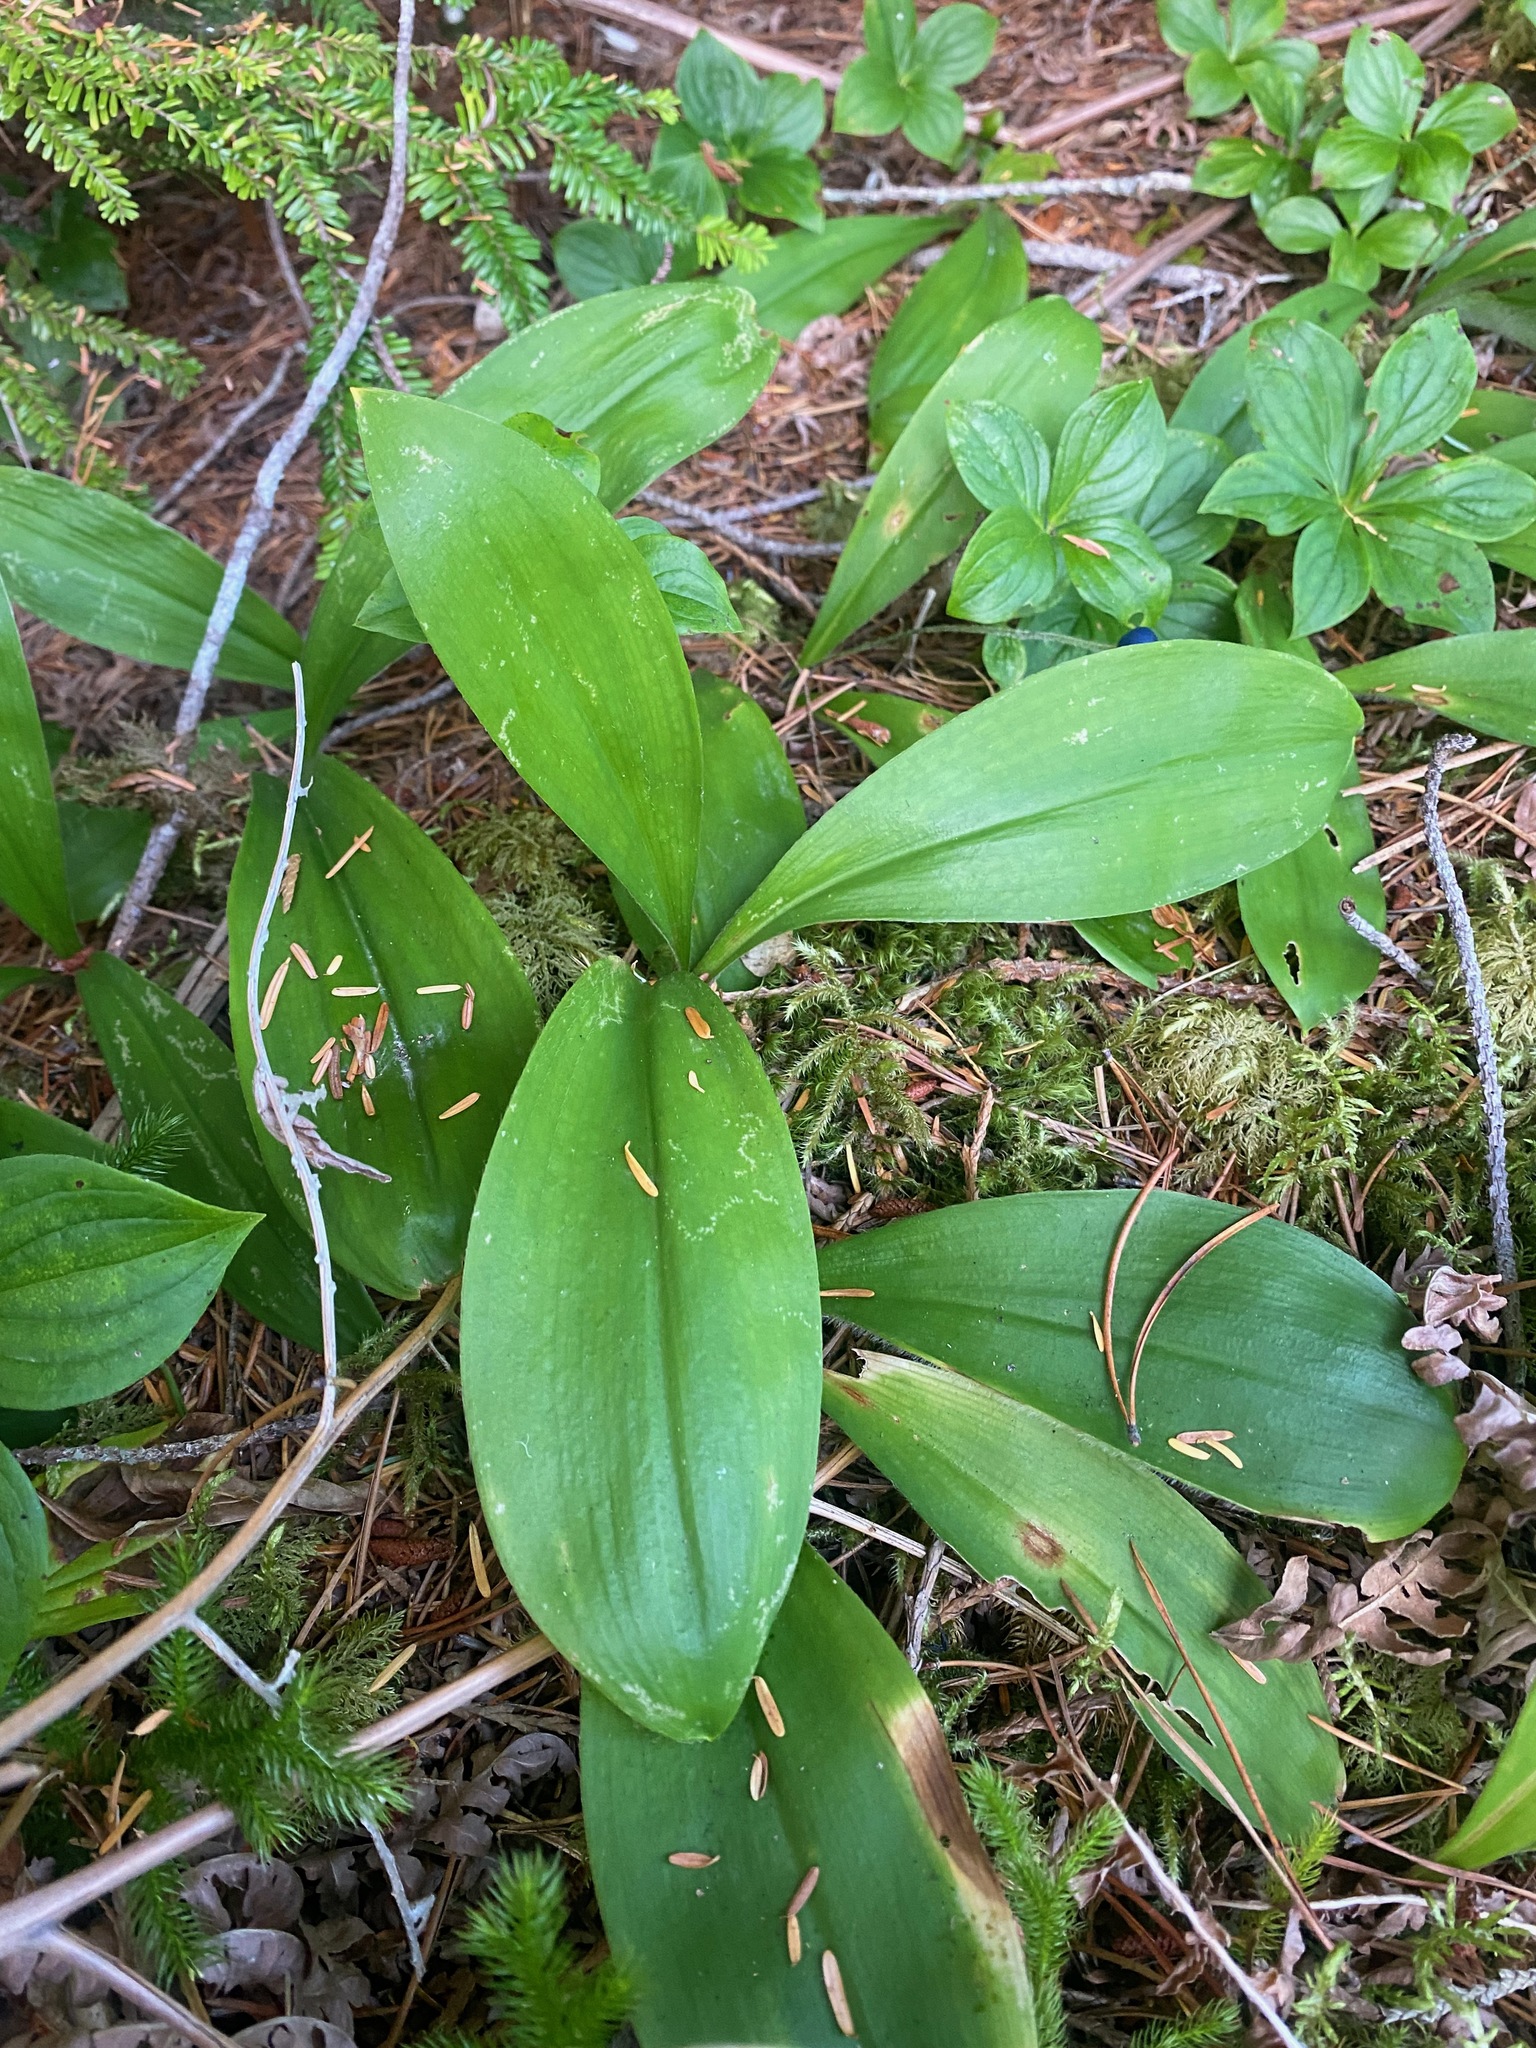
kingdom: Plantae
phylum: Tracheophyta
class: Liliopsida
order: Liliales
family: Liliaceae
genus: Clintonia
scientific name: Clintonia uniflora
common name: Queen's cup
